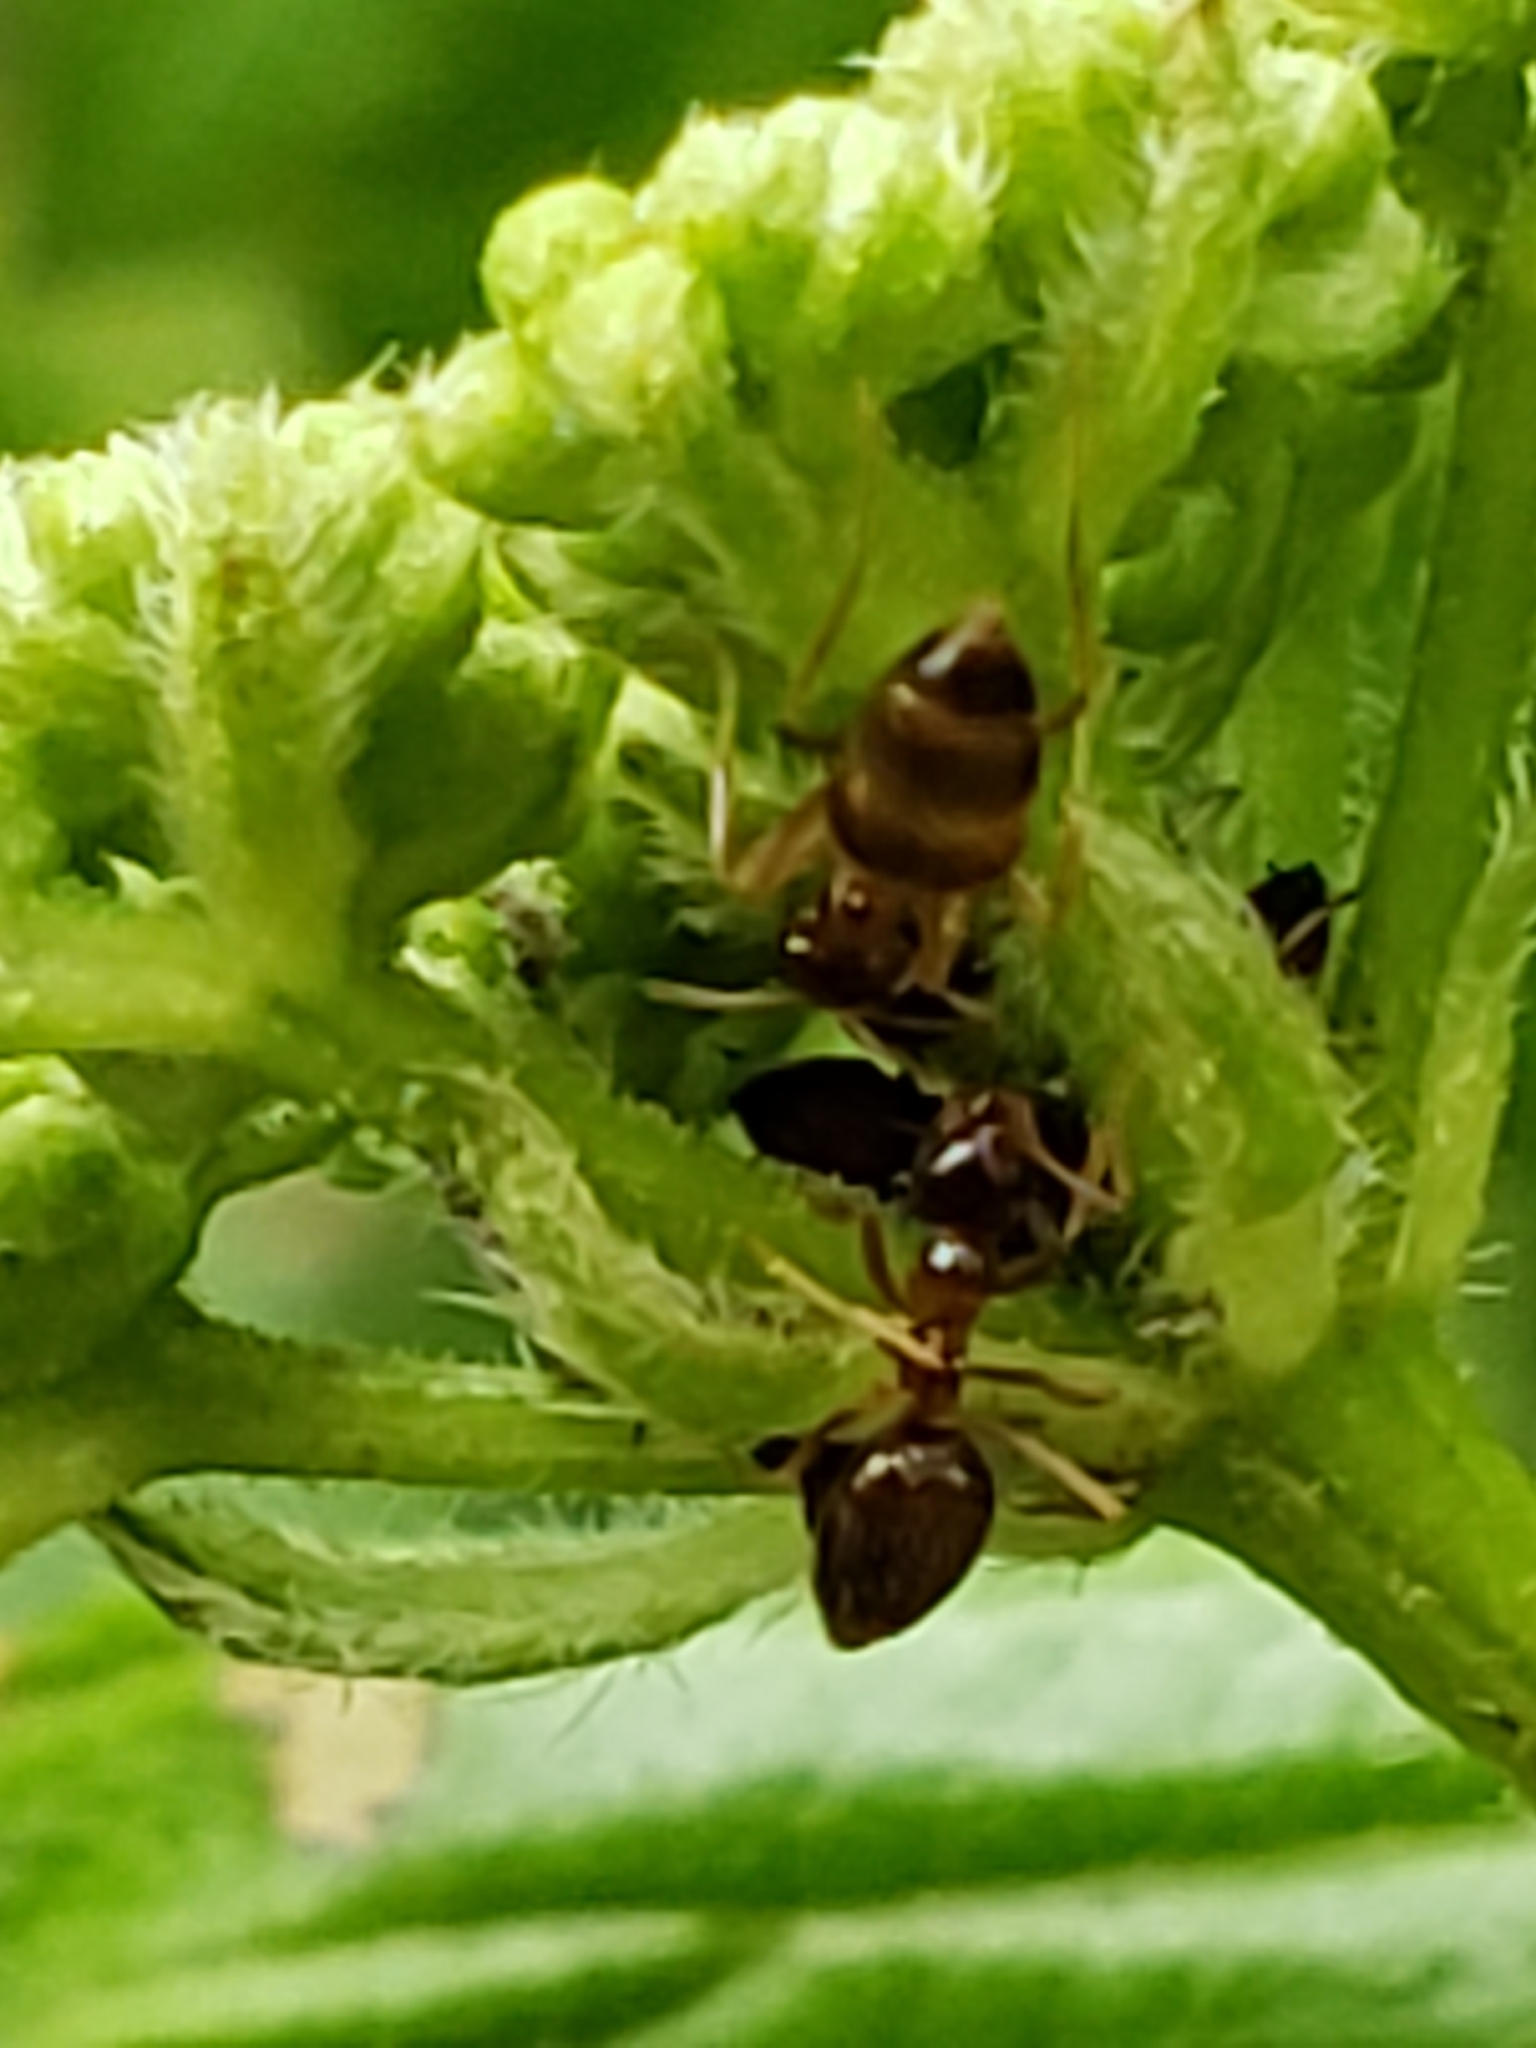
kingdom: Animalia
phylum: Arthropoda
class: Insecta
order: Hymenoptera
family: Formicidae
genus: Prenolepis
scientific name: Prenolepis imparis
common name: Small honey ant
